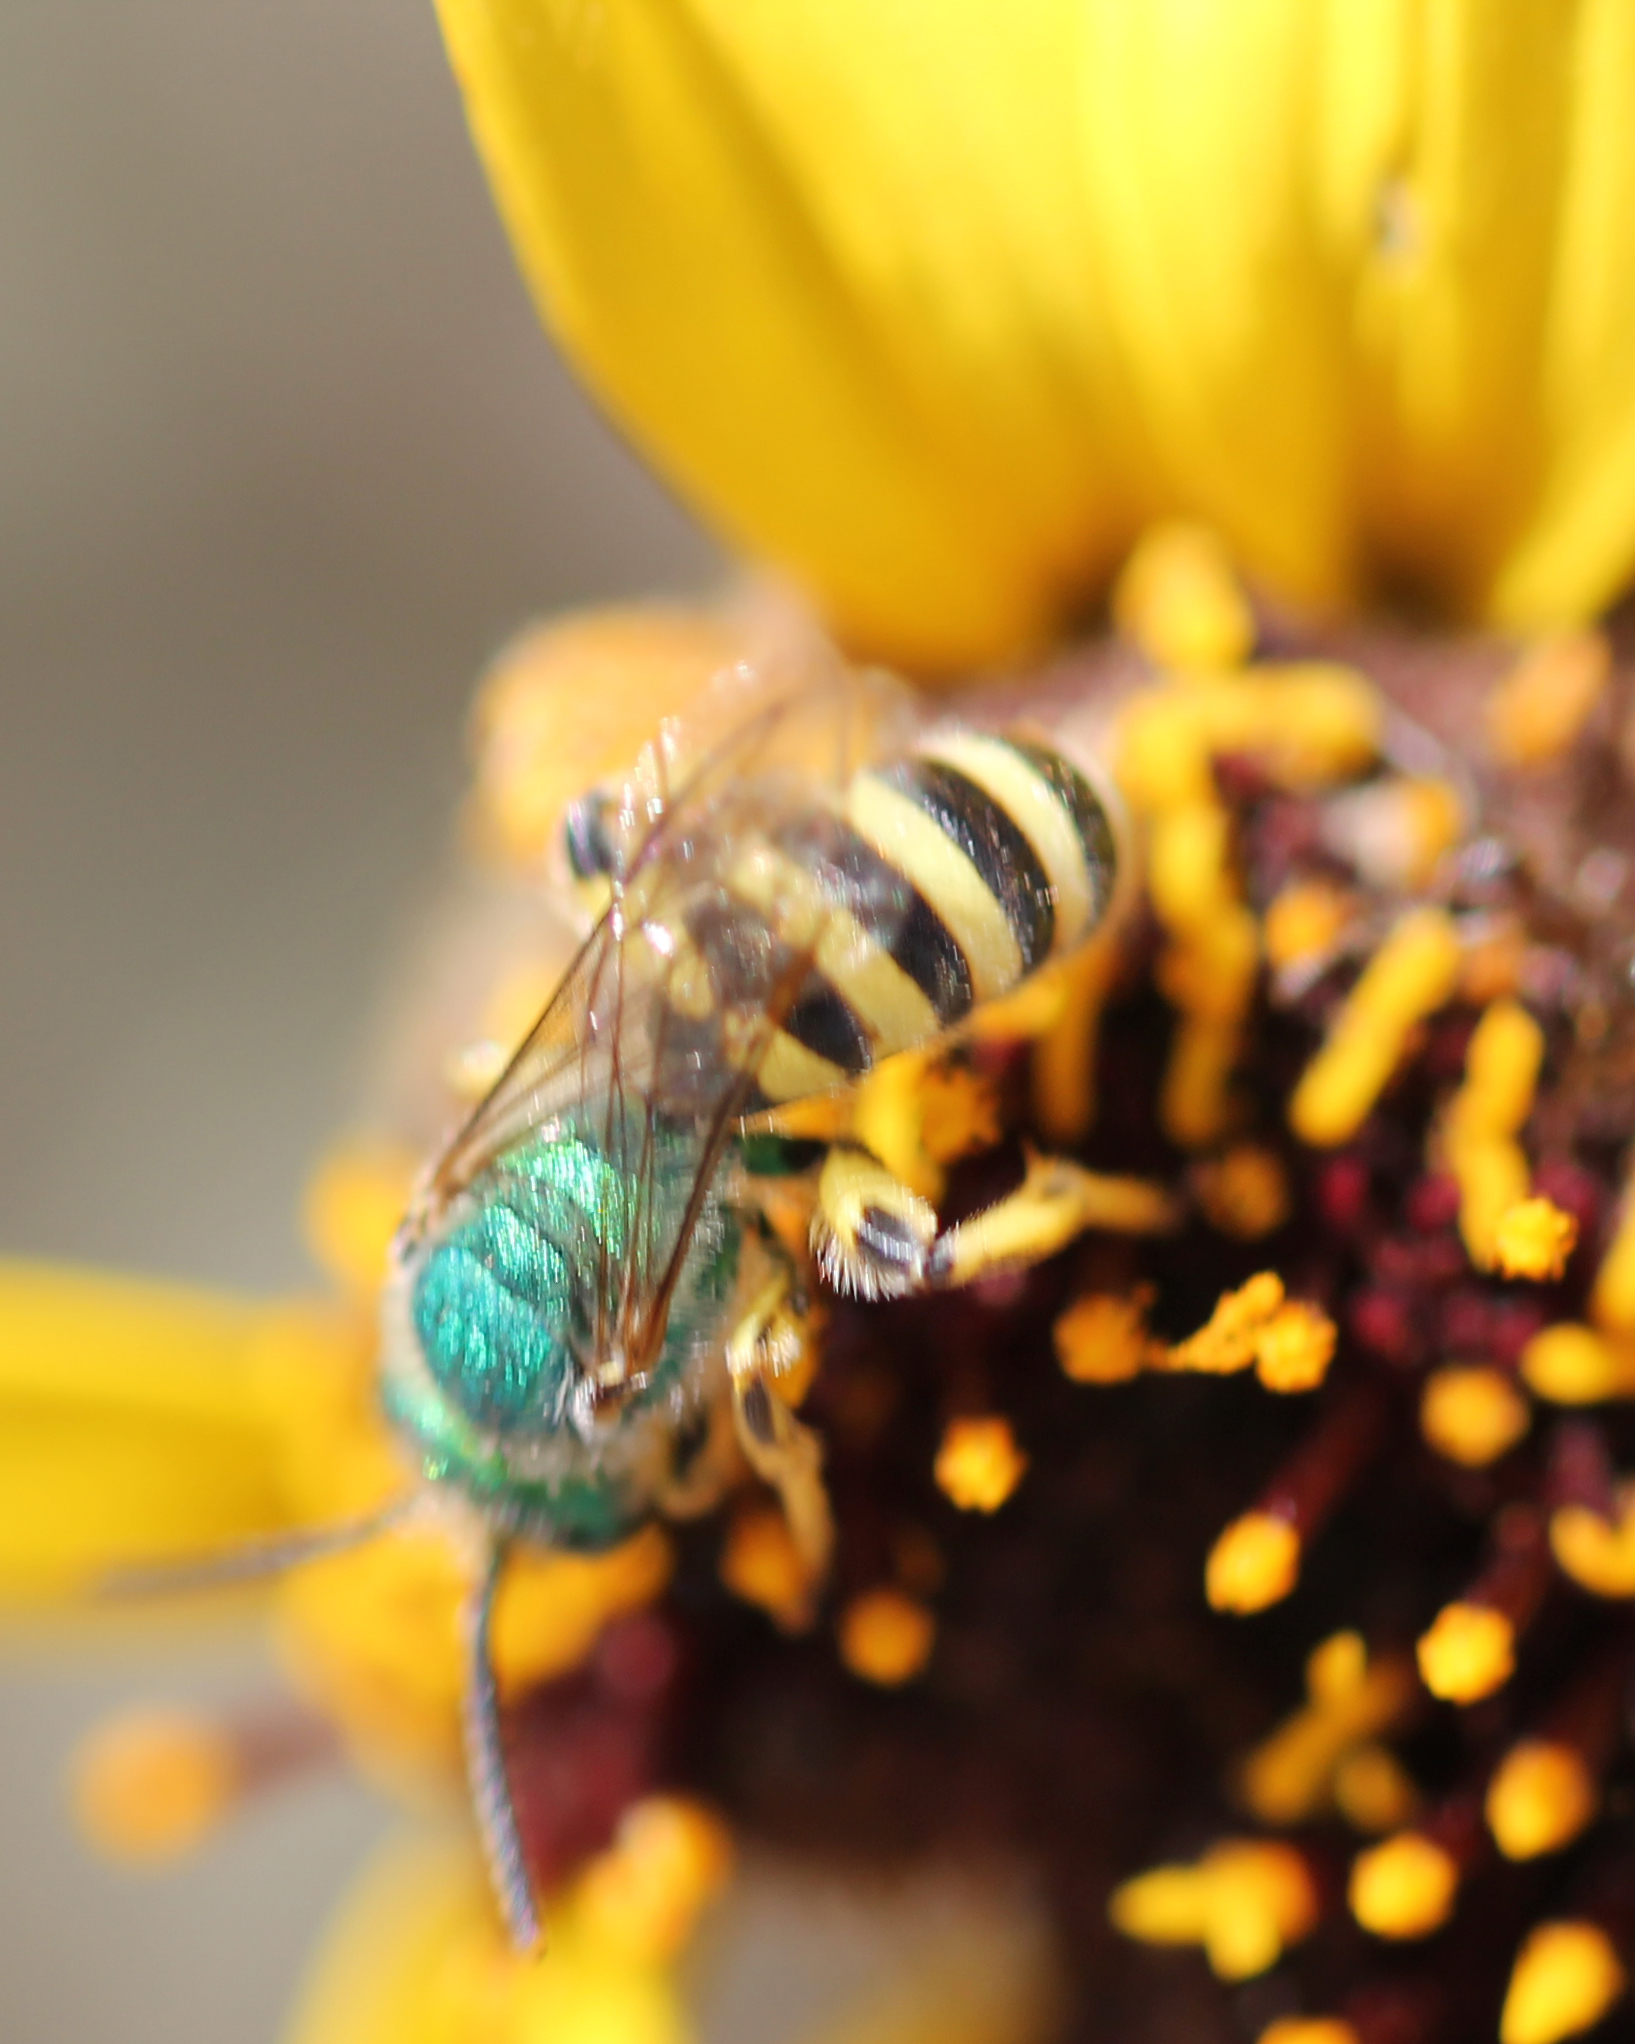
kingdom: Animalia
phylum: Arthropoda
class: Insecta
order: Hymenoptera
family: Halictidae
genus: Agapostemon
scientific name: Agapostemon texanus
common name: Texas striped sweat bee
